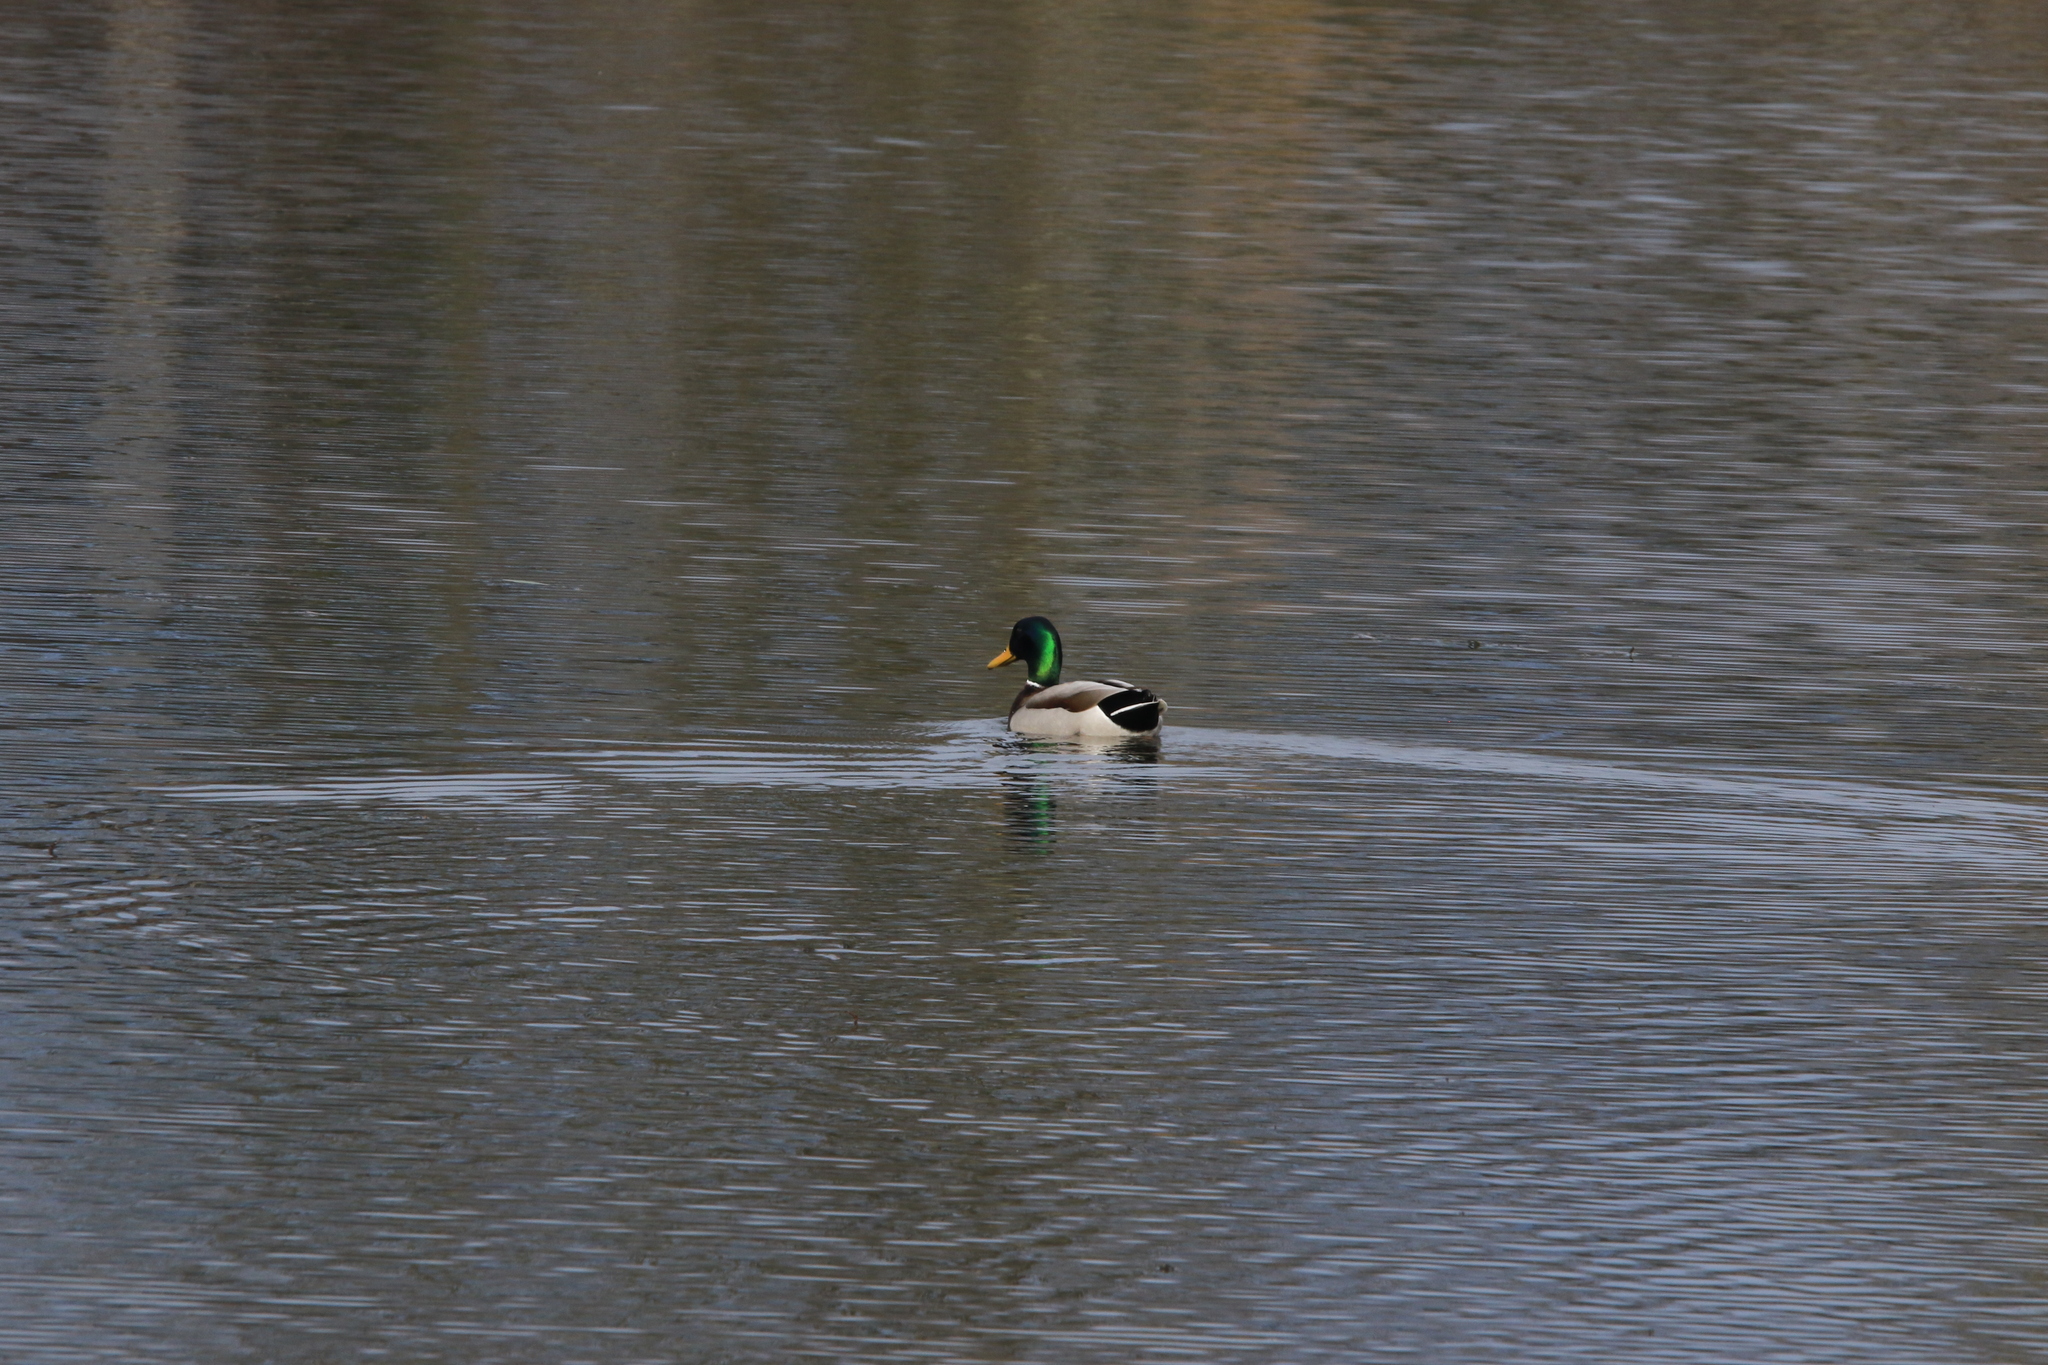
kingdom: Animalia
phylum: Chordata
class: Aves
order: Anseriformes
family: Anatidae
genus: Anas
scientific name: Anas platyrhynchos
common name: Mallard
